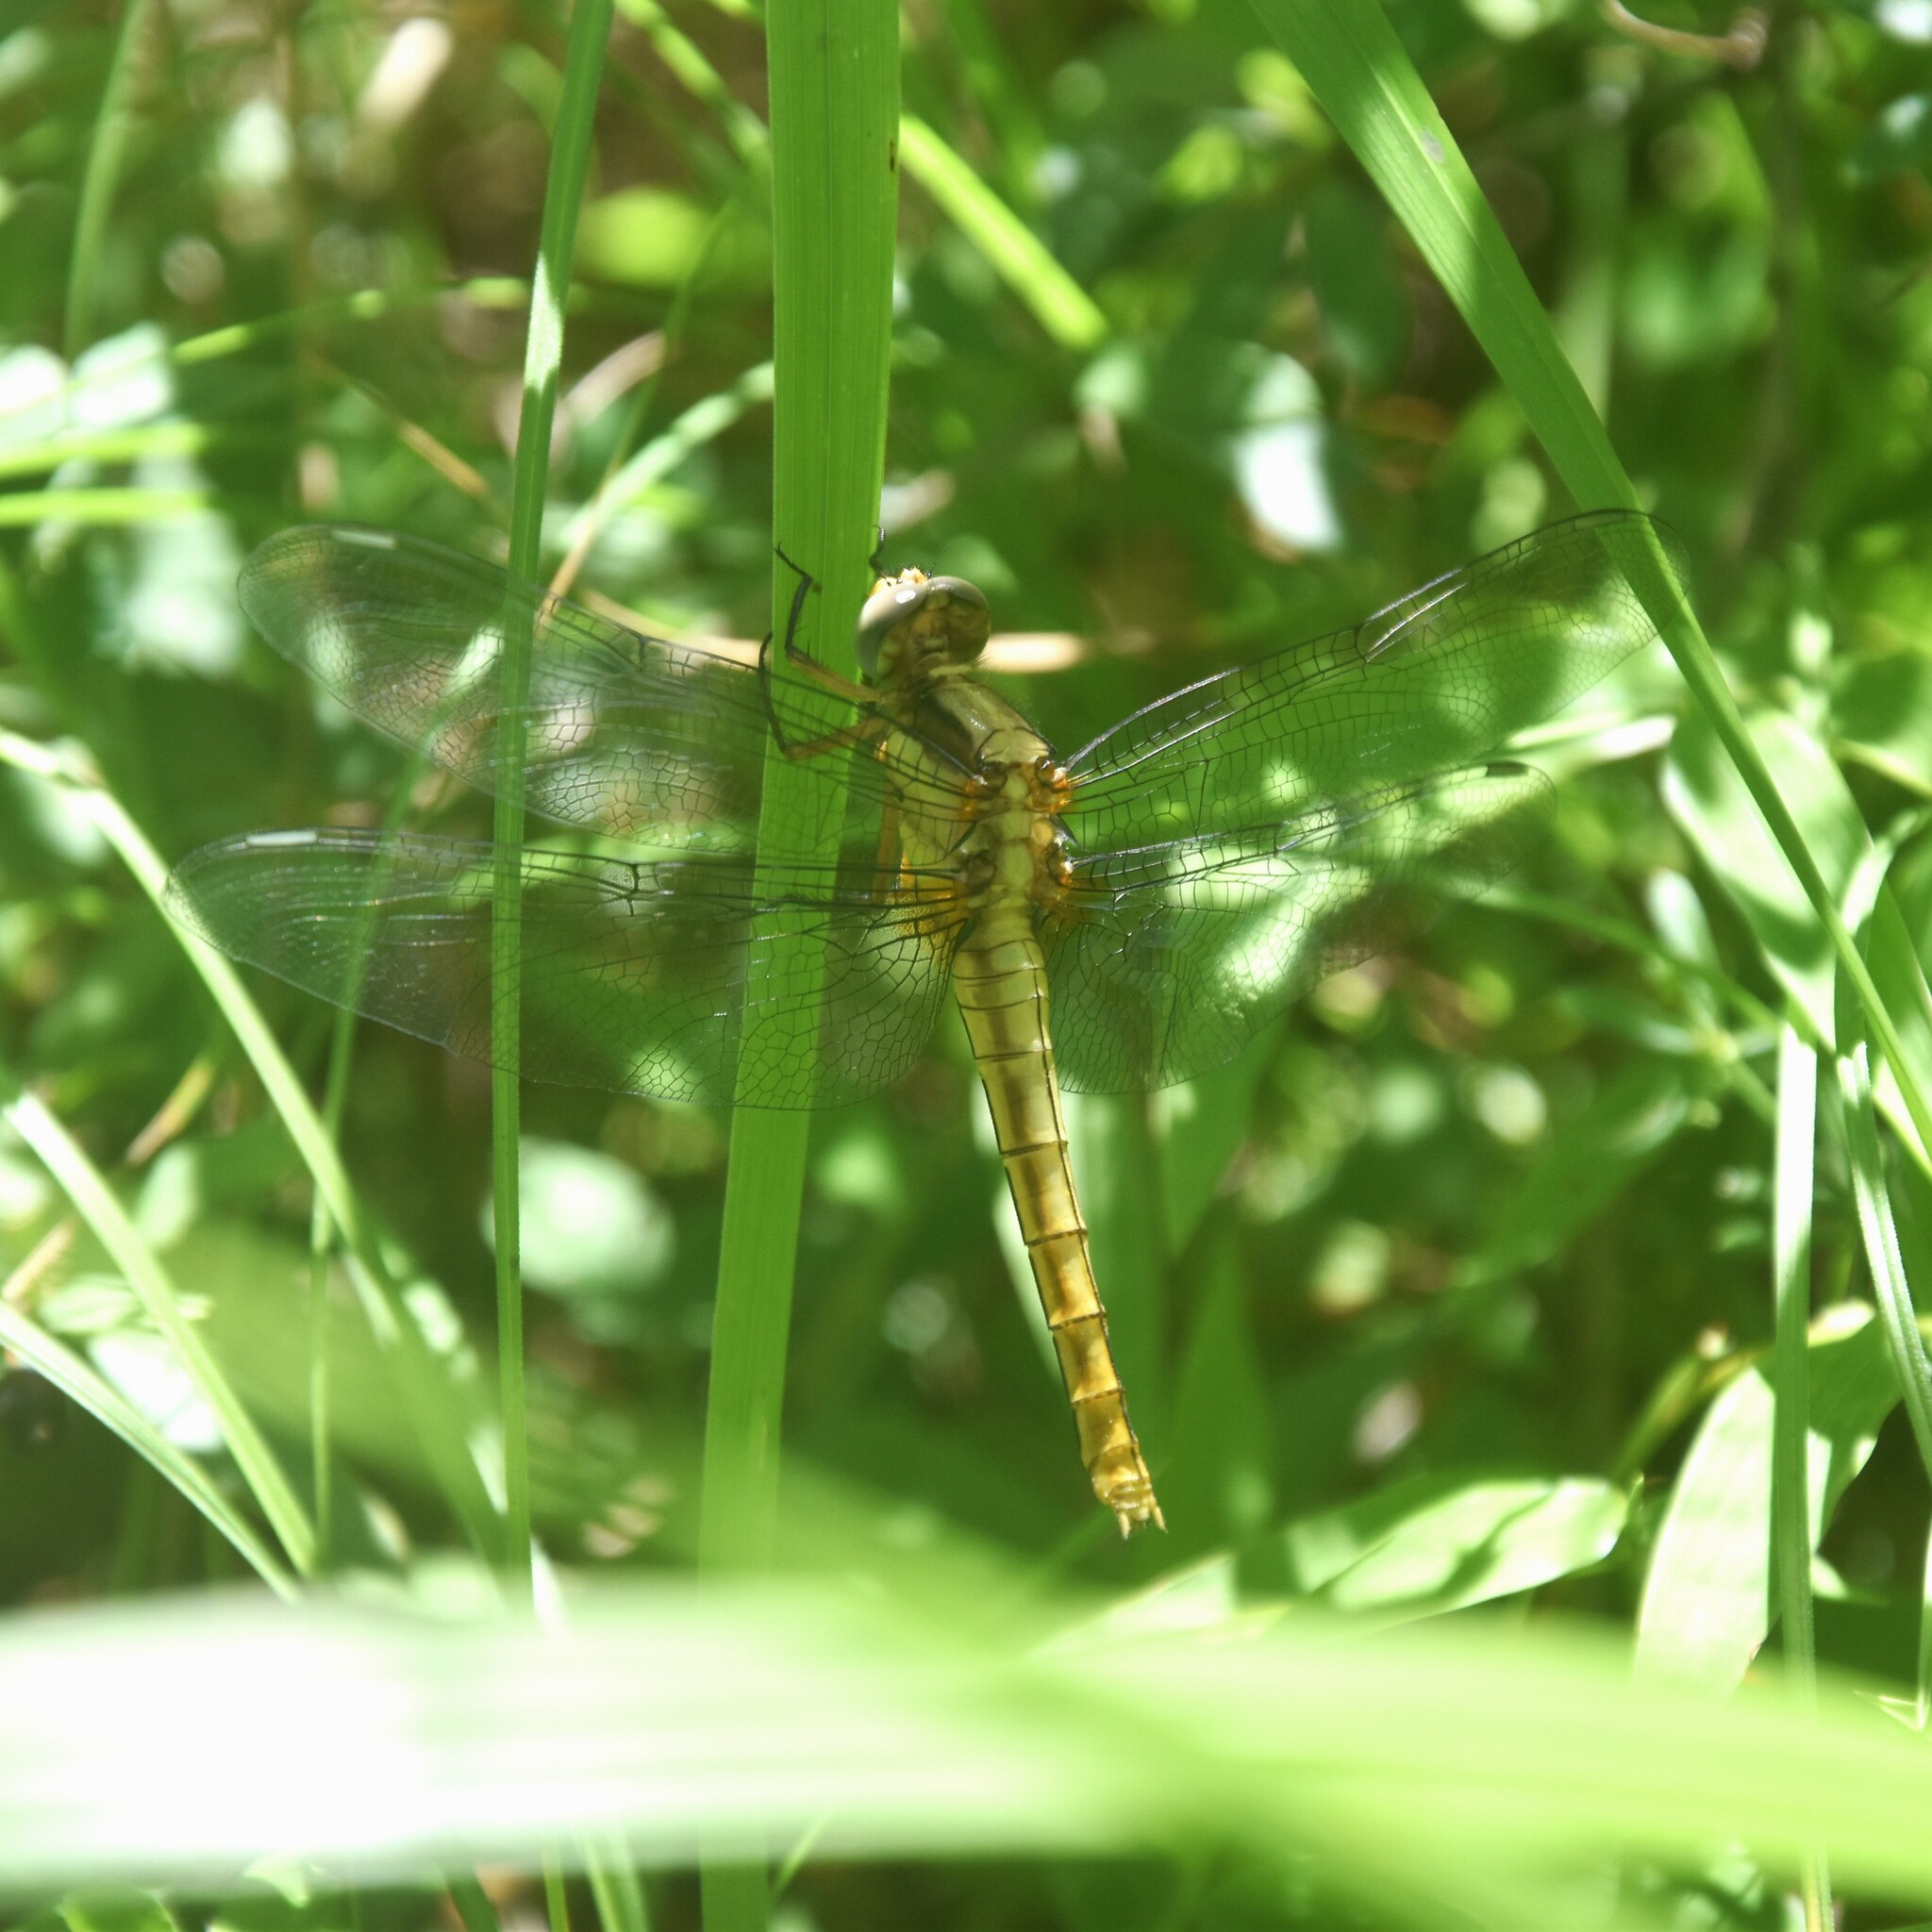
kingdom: Animalia
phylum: Arthropoda
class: Insecta
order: Odonata
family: Libellulidae
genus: Orthetrum
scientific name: Orthetrum internum
